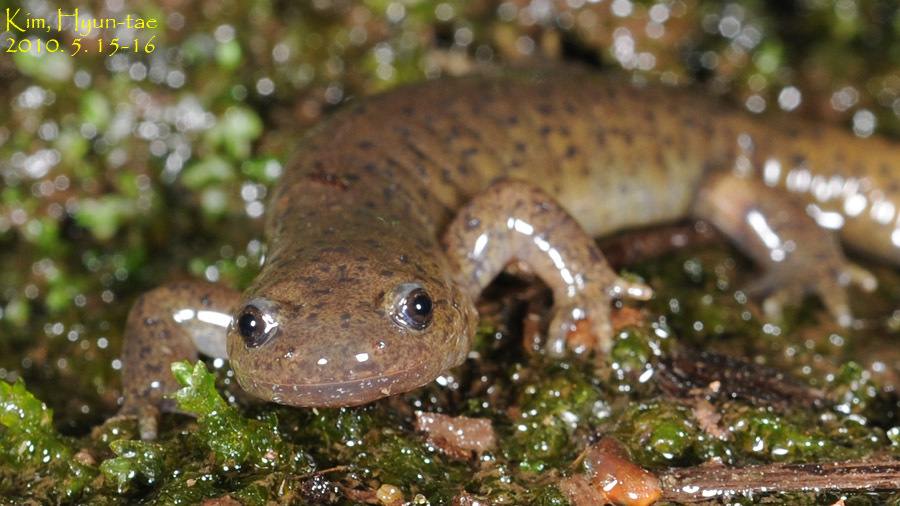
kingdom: Animalia
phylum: Chordata
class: Amphibia
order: Caudata
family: Hynobiidae
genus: Hynobius
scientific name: Hynobius leechii
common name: Gensan salamander
